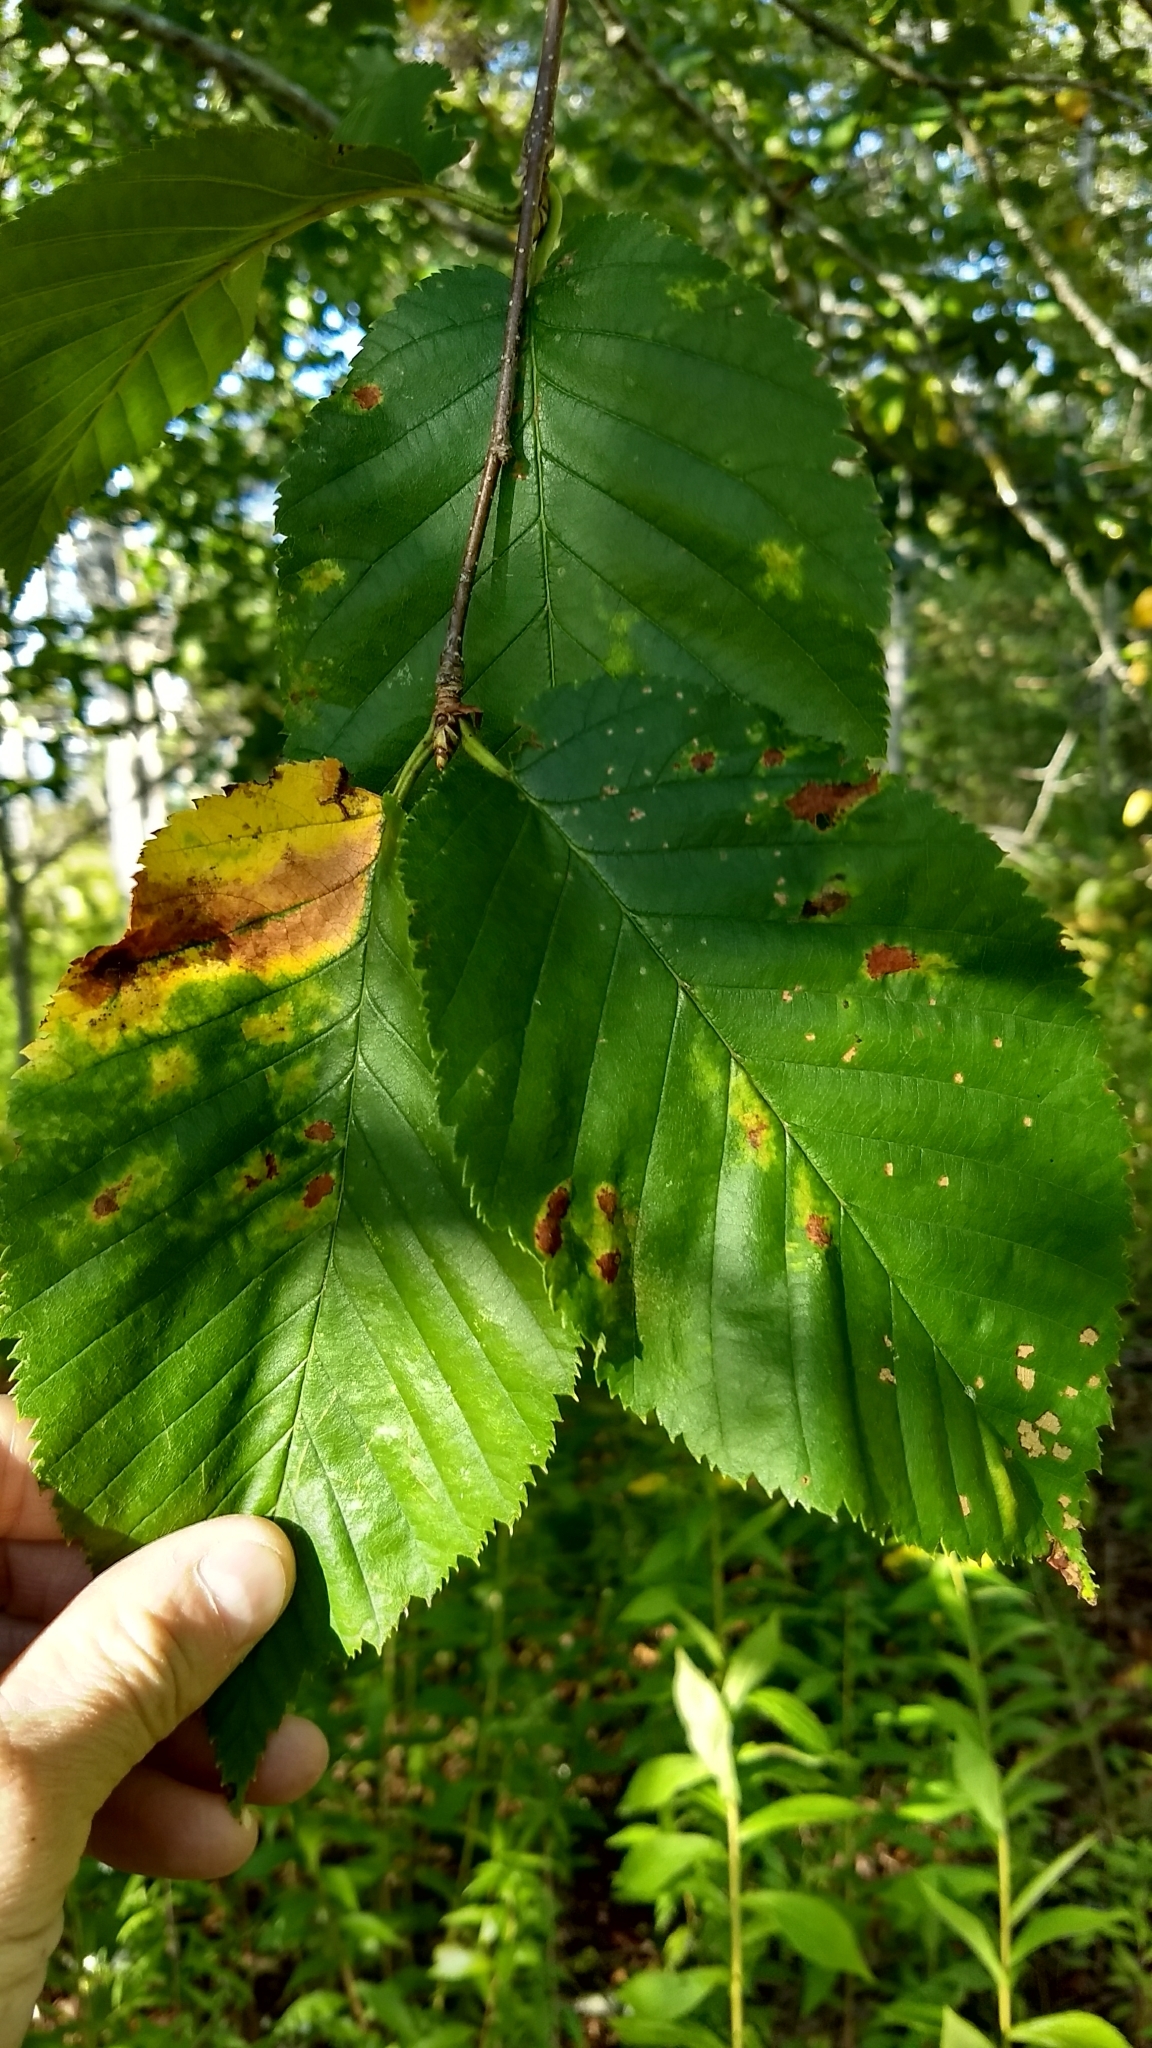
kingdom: Plantae
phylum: Tracheophyta
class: Magnoliopsida
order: Fagales
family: Betulaceae
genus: Betula
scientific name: Betula alleghaniensis
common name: Yellow birch
